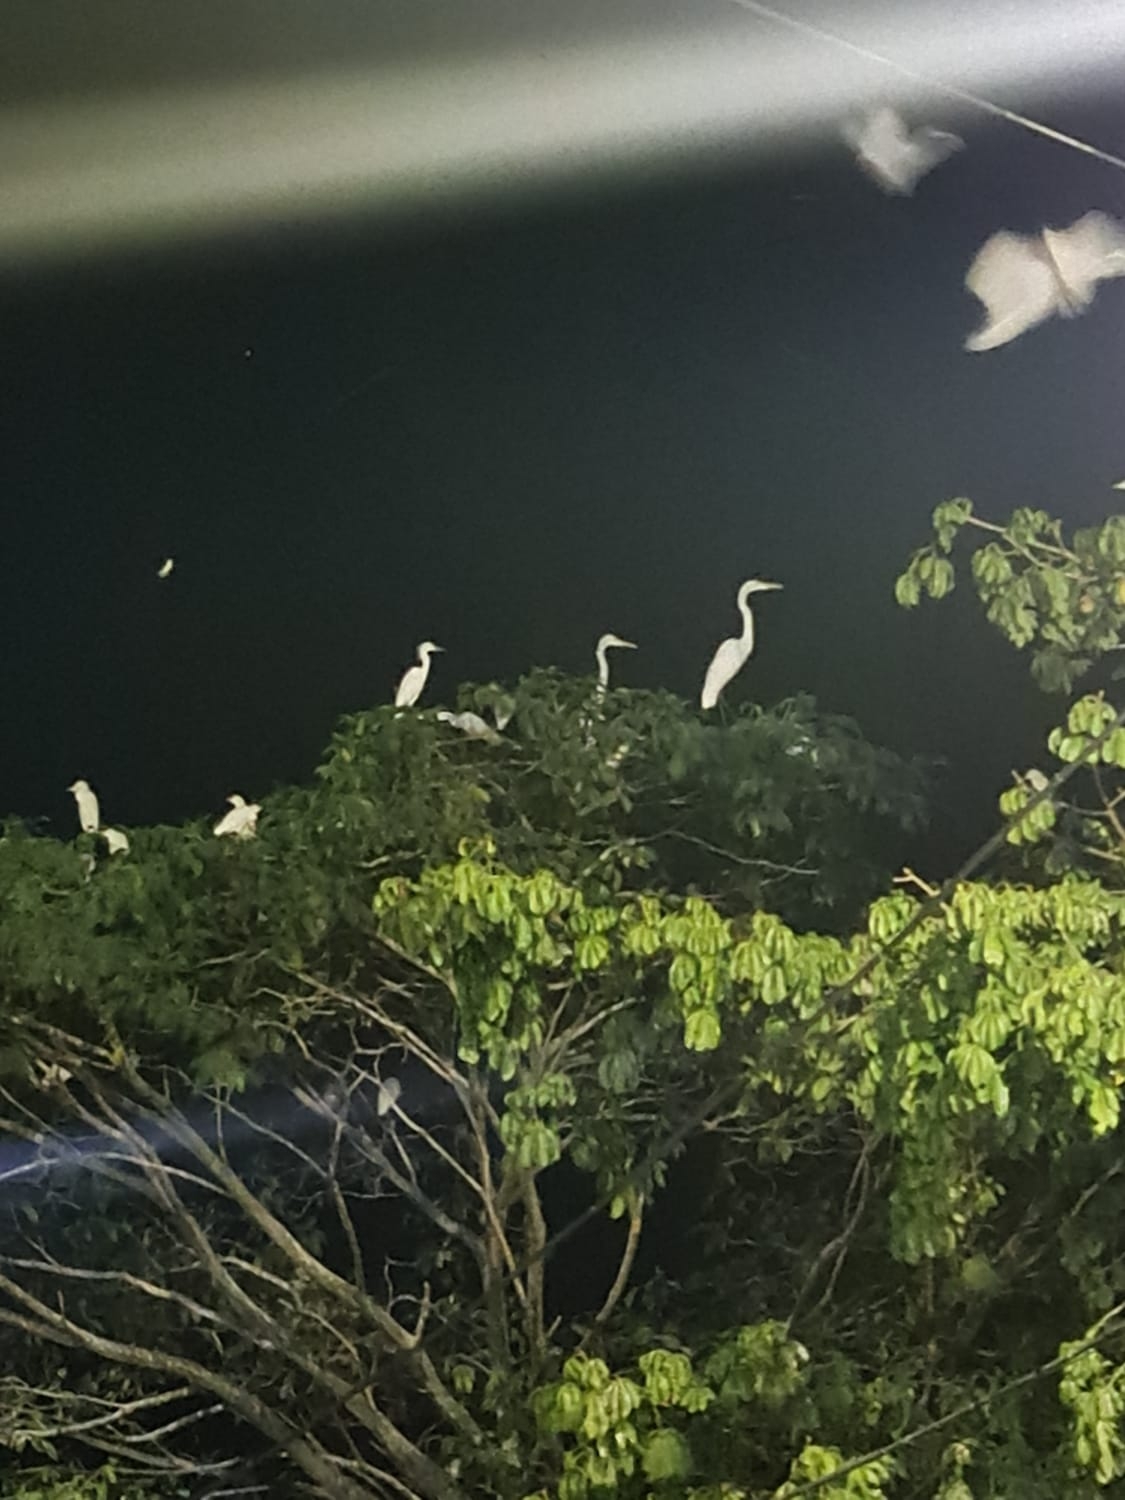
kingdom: Animalia
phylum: Chordata
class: Aves
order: Pelecaniformes
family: Ardeidae
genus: Ardea
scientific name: Ardea alba
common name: Great egret
